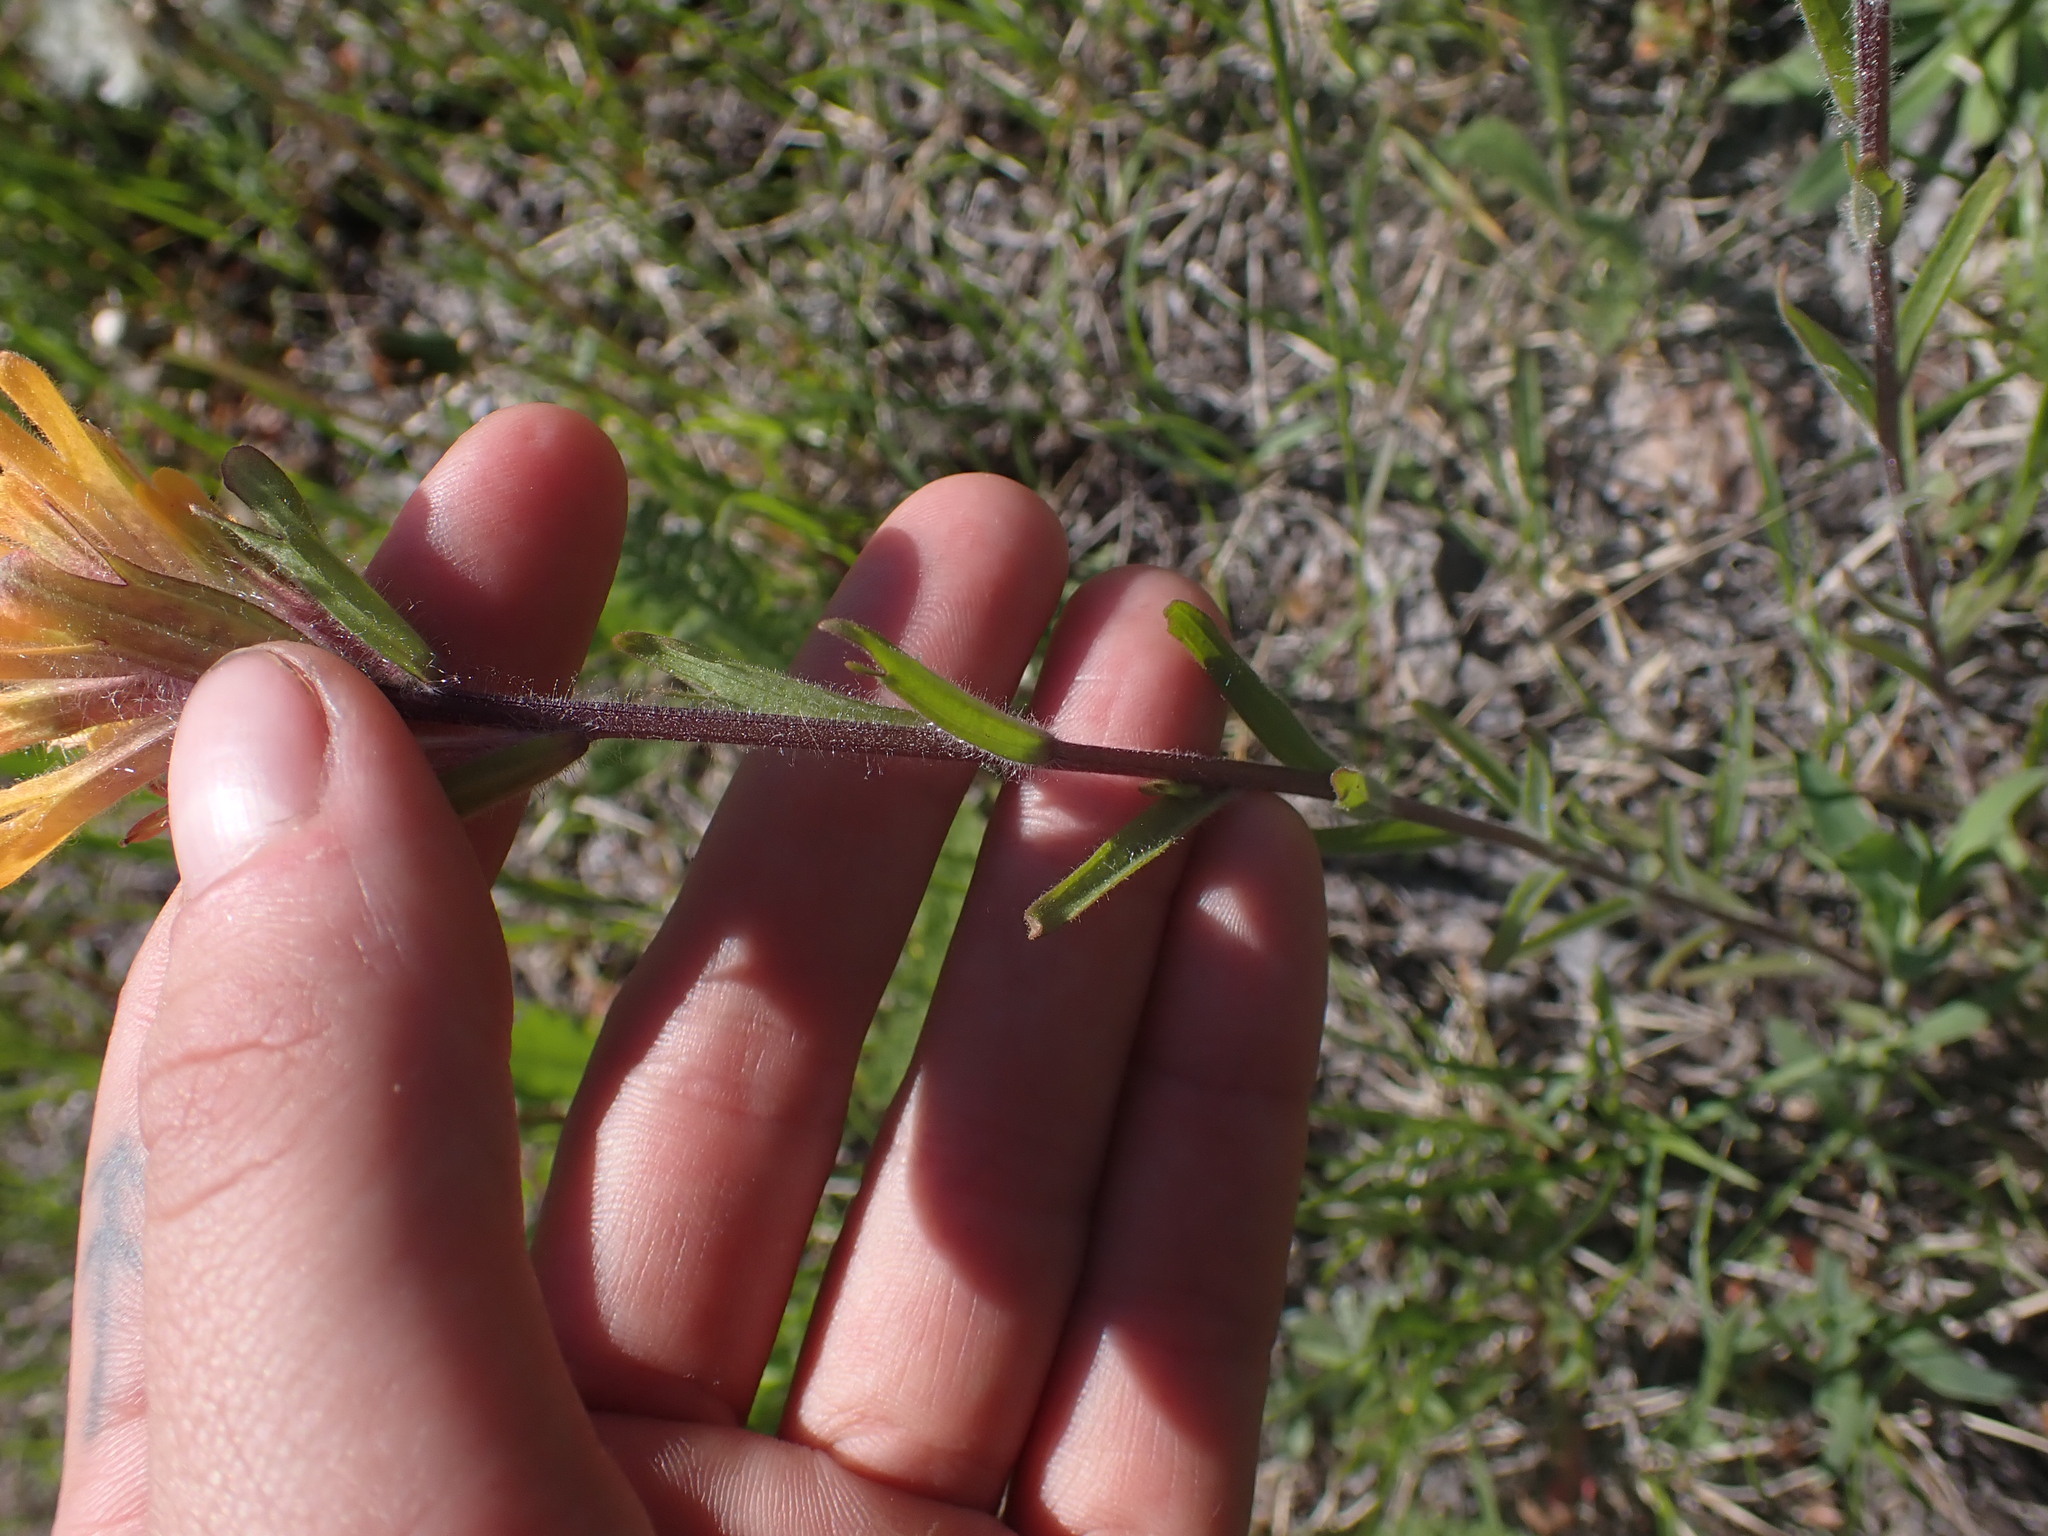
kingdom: Plantae
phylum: Tracheophyta
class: Magnoliopsida
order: Lamiales
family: Orobanchaceae
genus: Castilleja
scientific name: Castilleja hispida
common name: Bristly paintbrush
